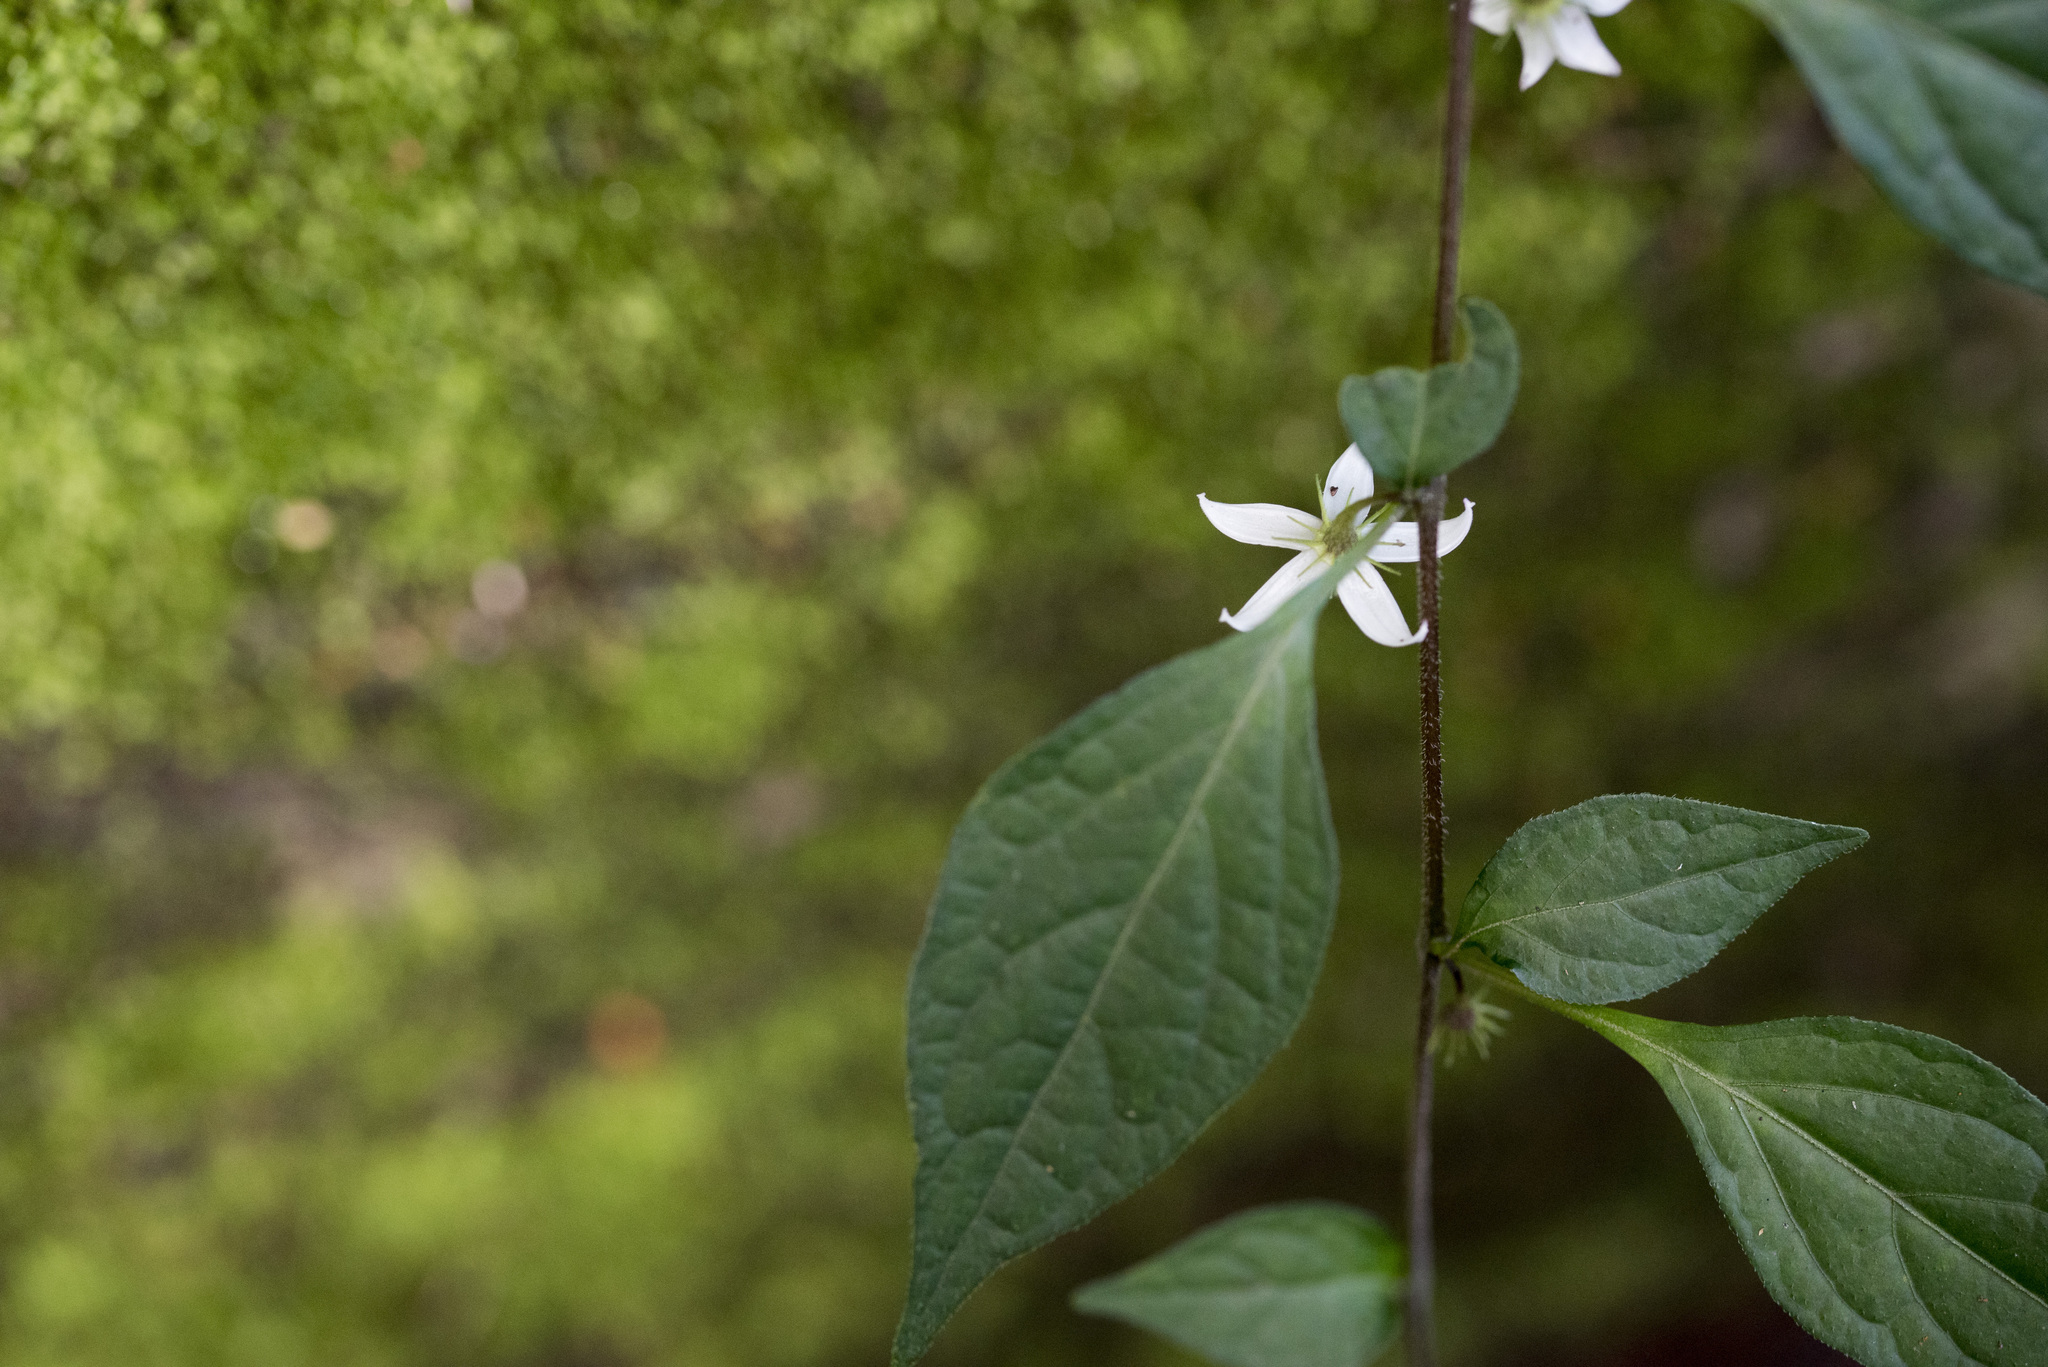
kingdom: Plantae
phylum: Tracheophyta
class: Magnoliopsida
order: Solanales
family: Solanaceae
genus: Lycianthes
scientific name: Lycianthes lysimachioides
